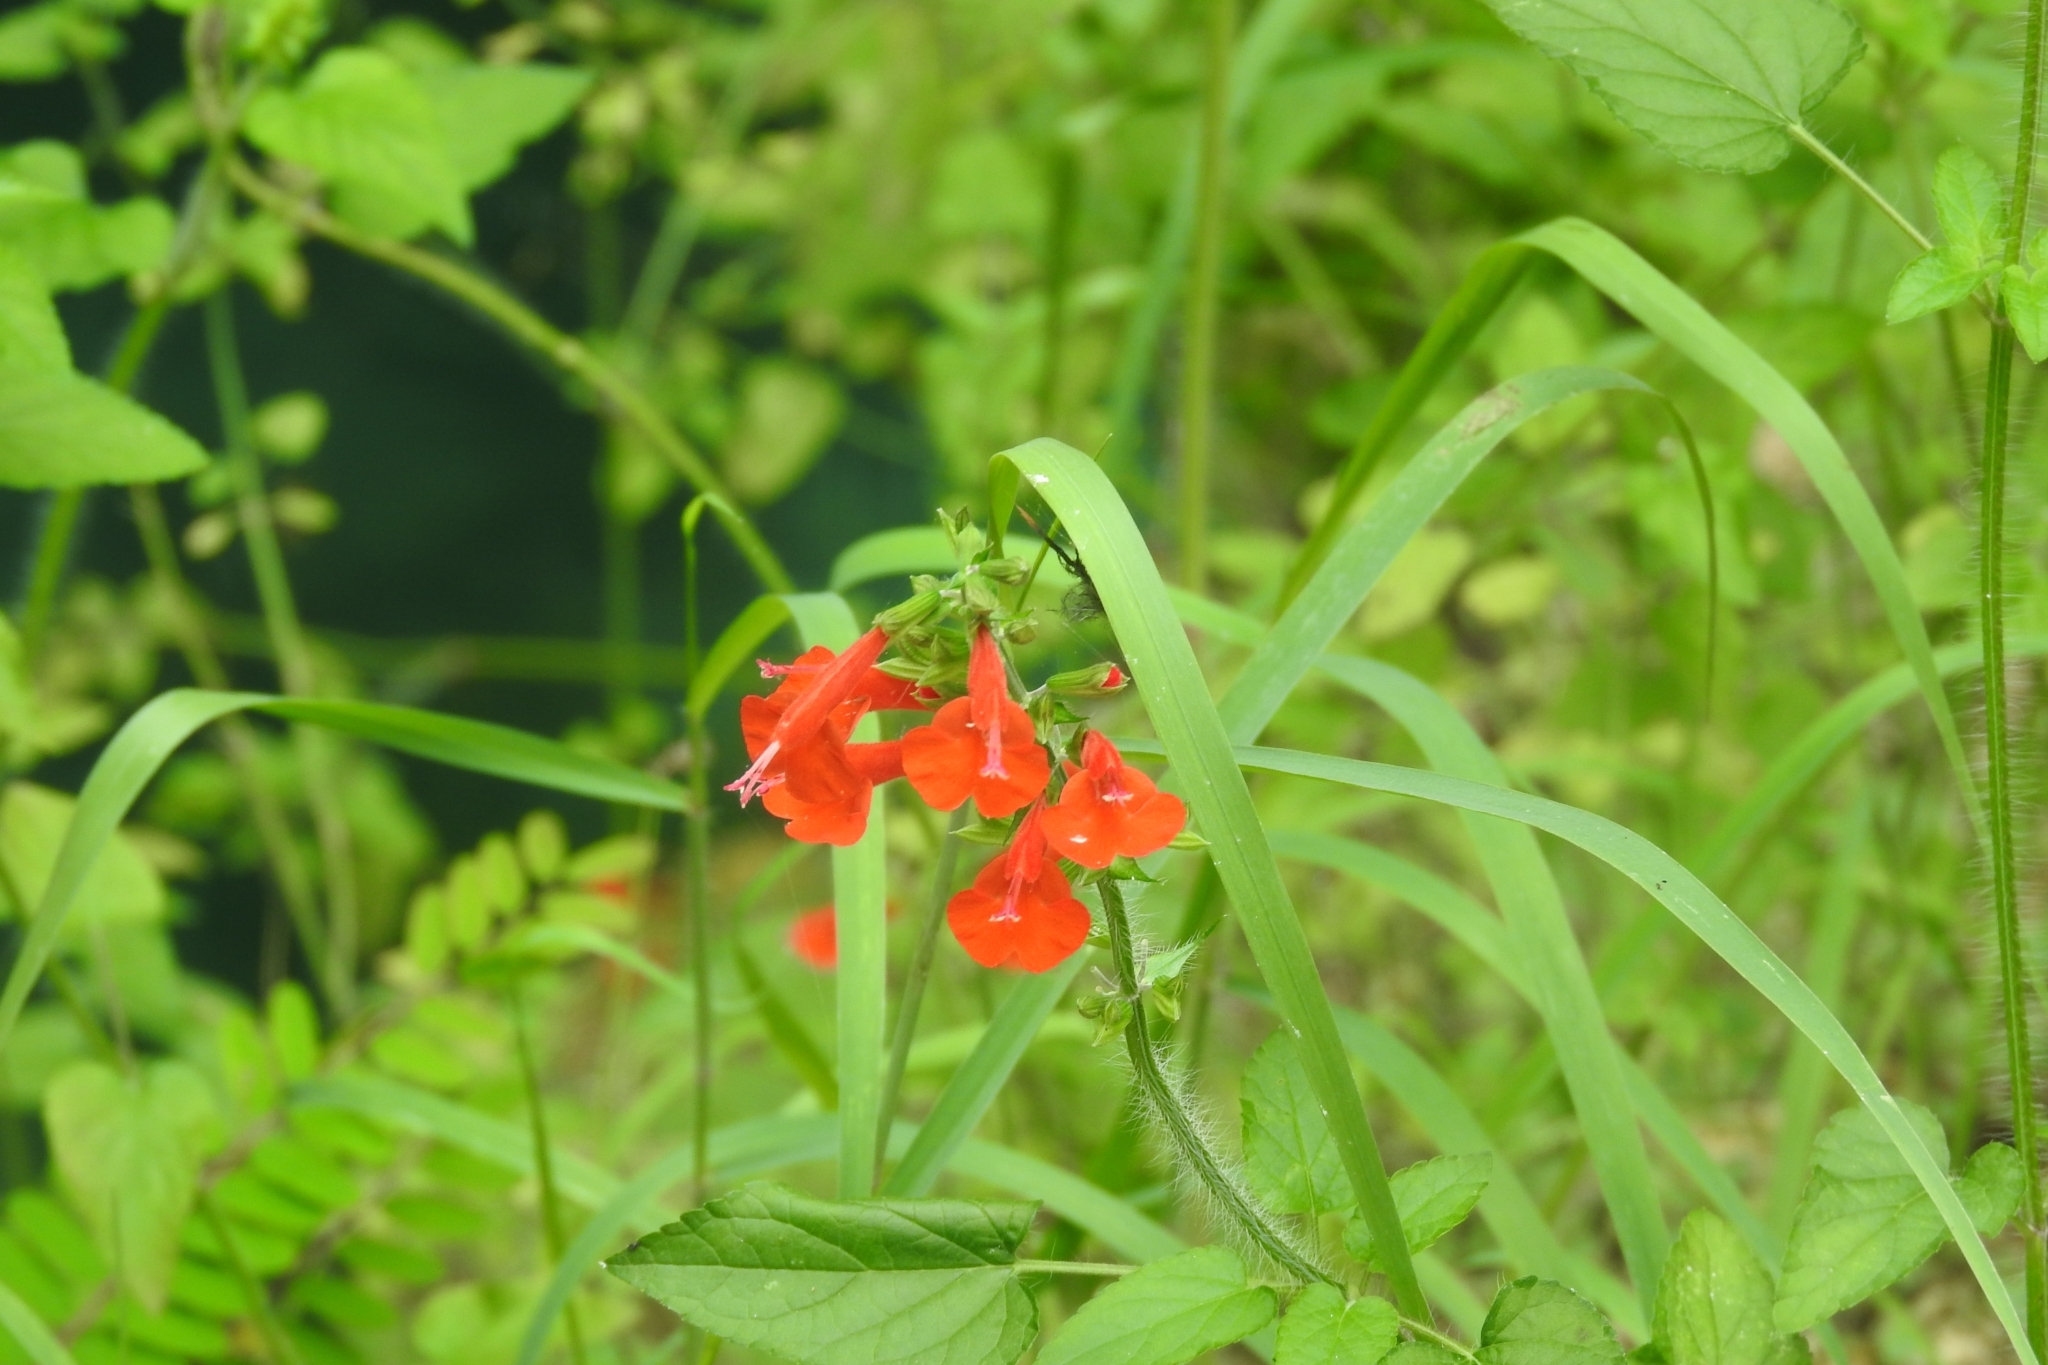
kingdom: Plantae
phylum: Tracheophyta
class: Magnoliopsida
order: Lamiales
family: Lamiaceae
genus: Salvia
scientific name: Salvia coccinea
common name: Blood sage
